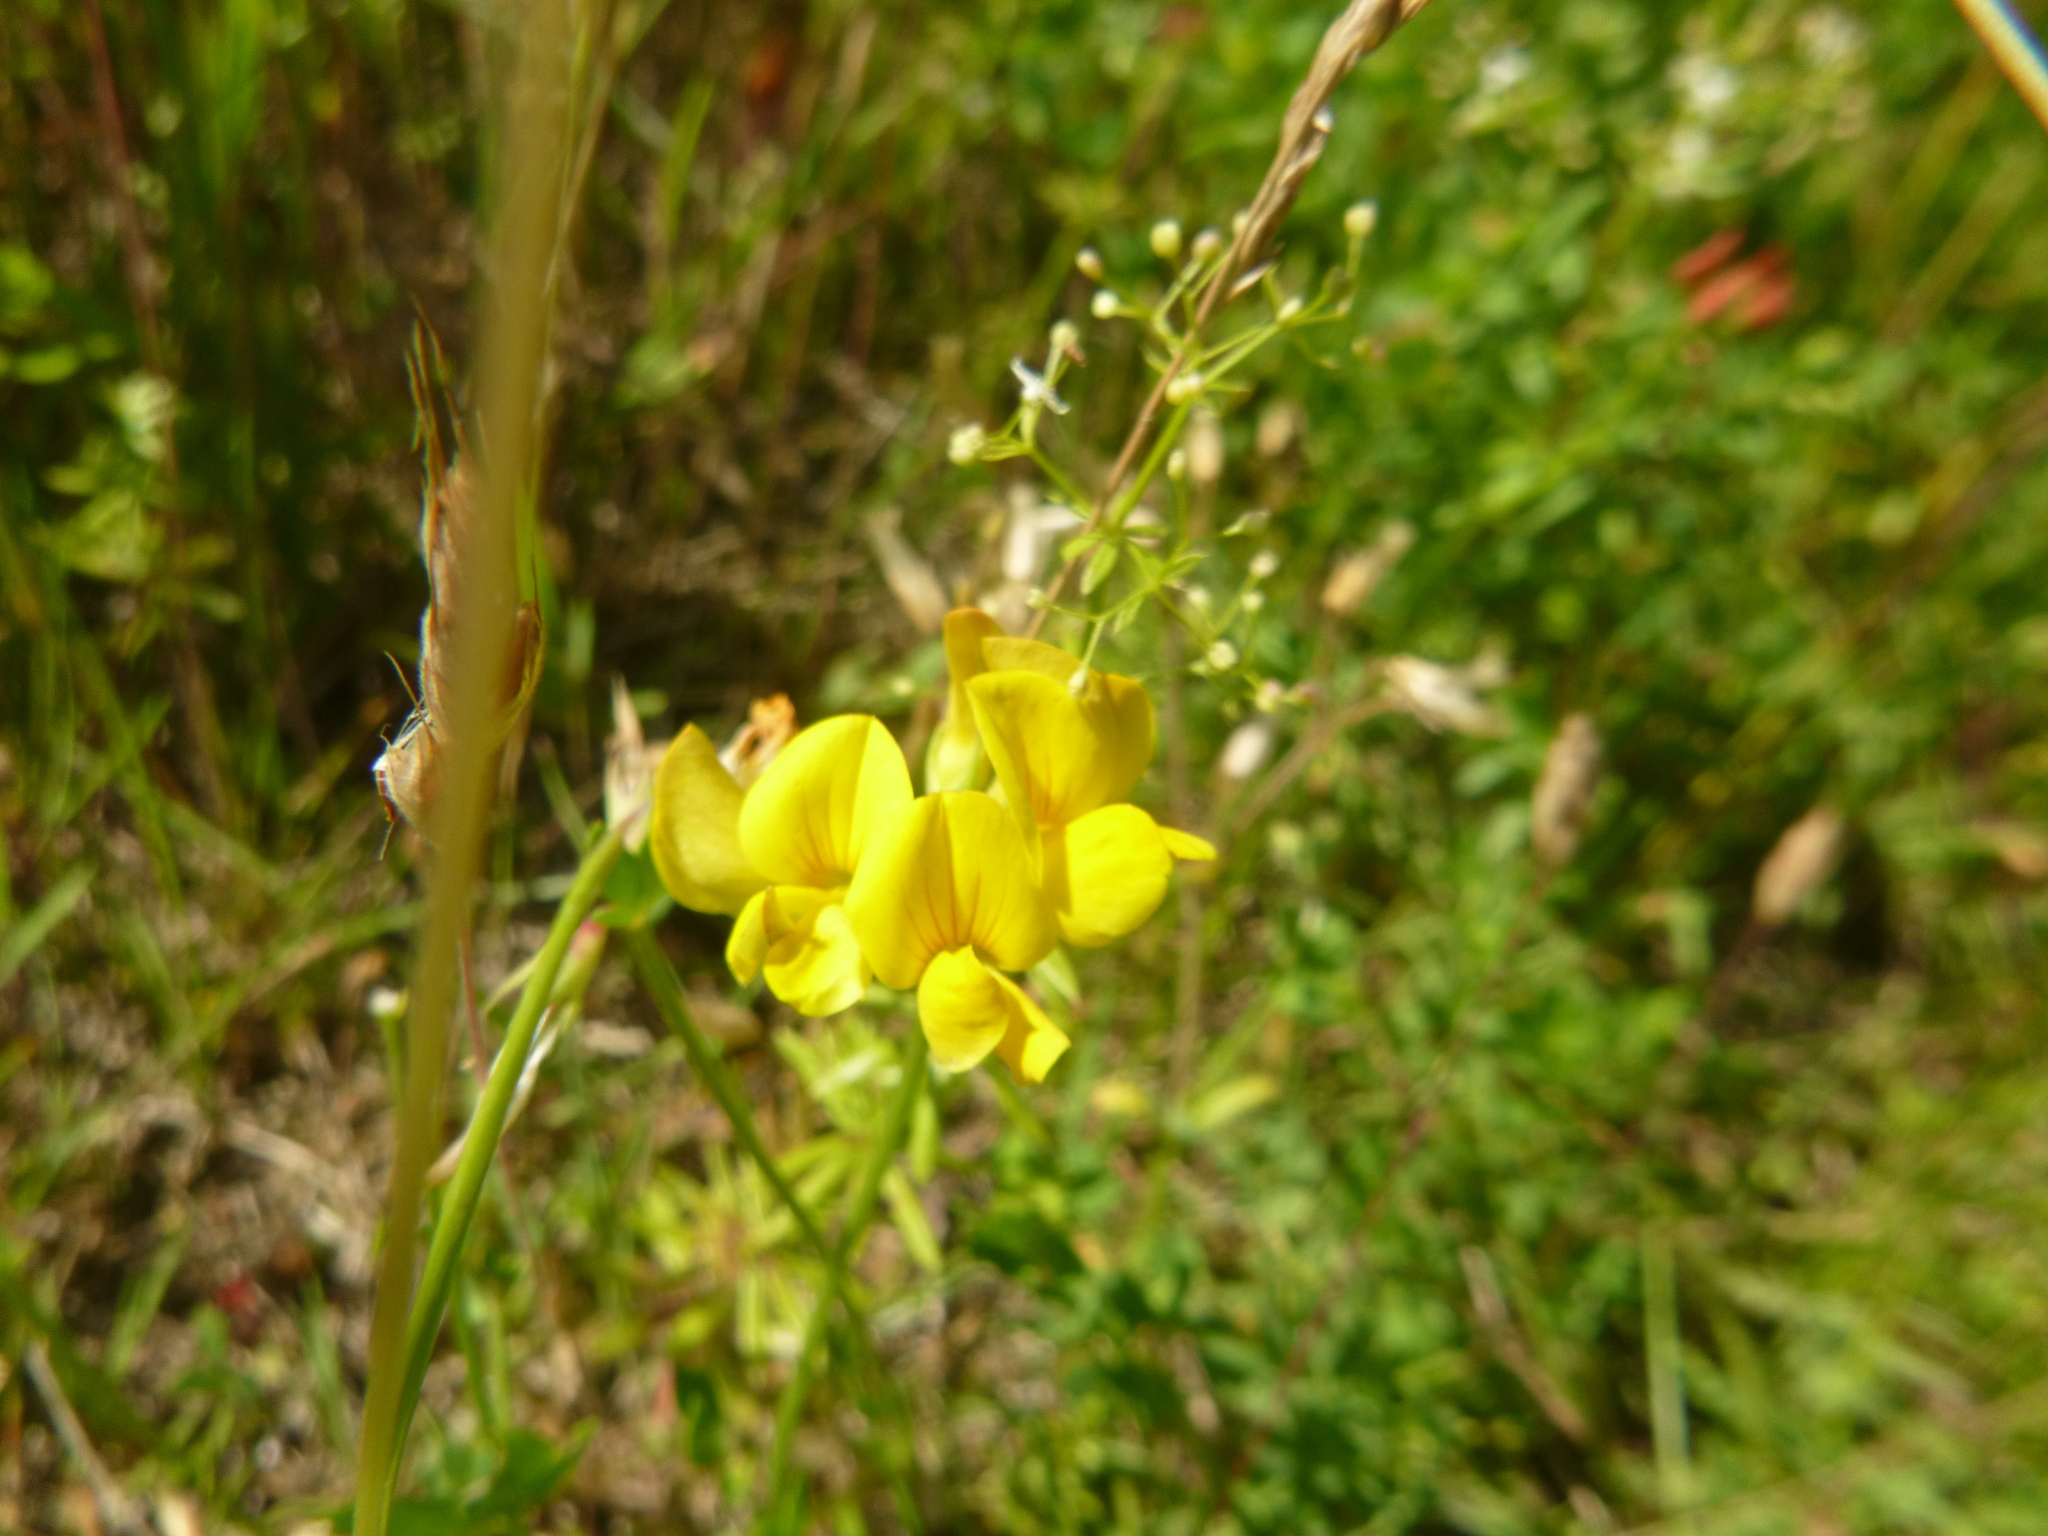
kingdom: Plantae
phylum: Tracheophyta
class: Magnoliopsida
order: Fabales
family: Fabaceae
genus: Lotus
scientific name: Lotus corniculatus
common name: Common bird's-foot-trefoil
